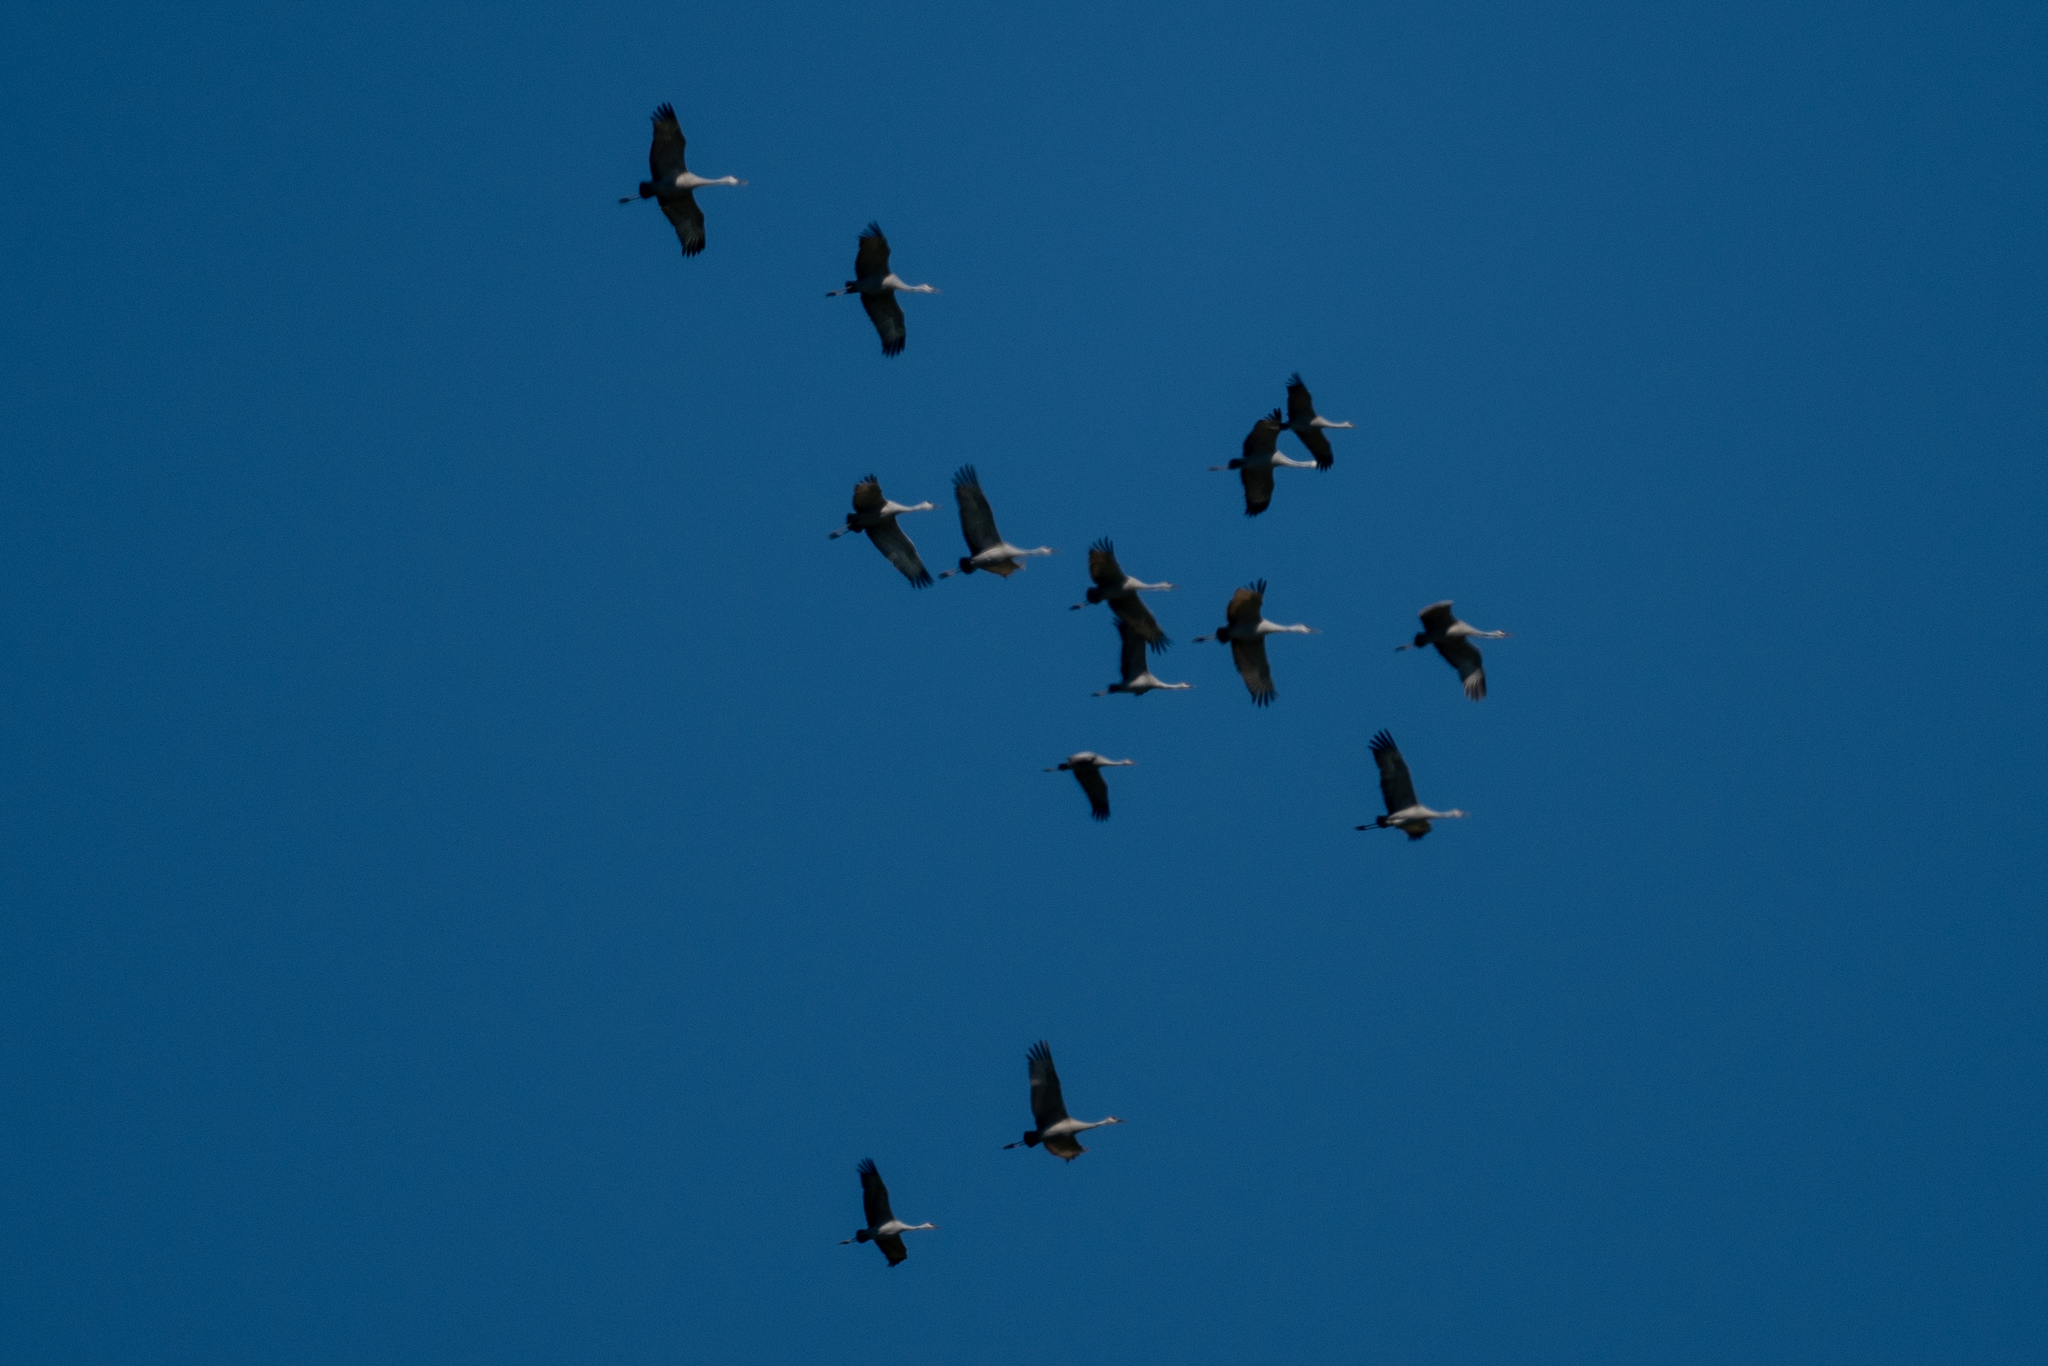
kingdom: Animalia
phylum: Chordata
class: Aves
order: Gruiformes
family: Gruidae
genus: Grus
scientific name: Grus canadensis
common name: Sandhill crane
